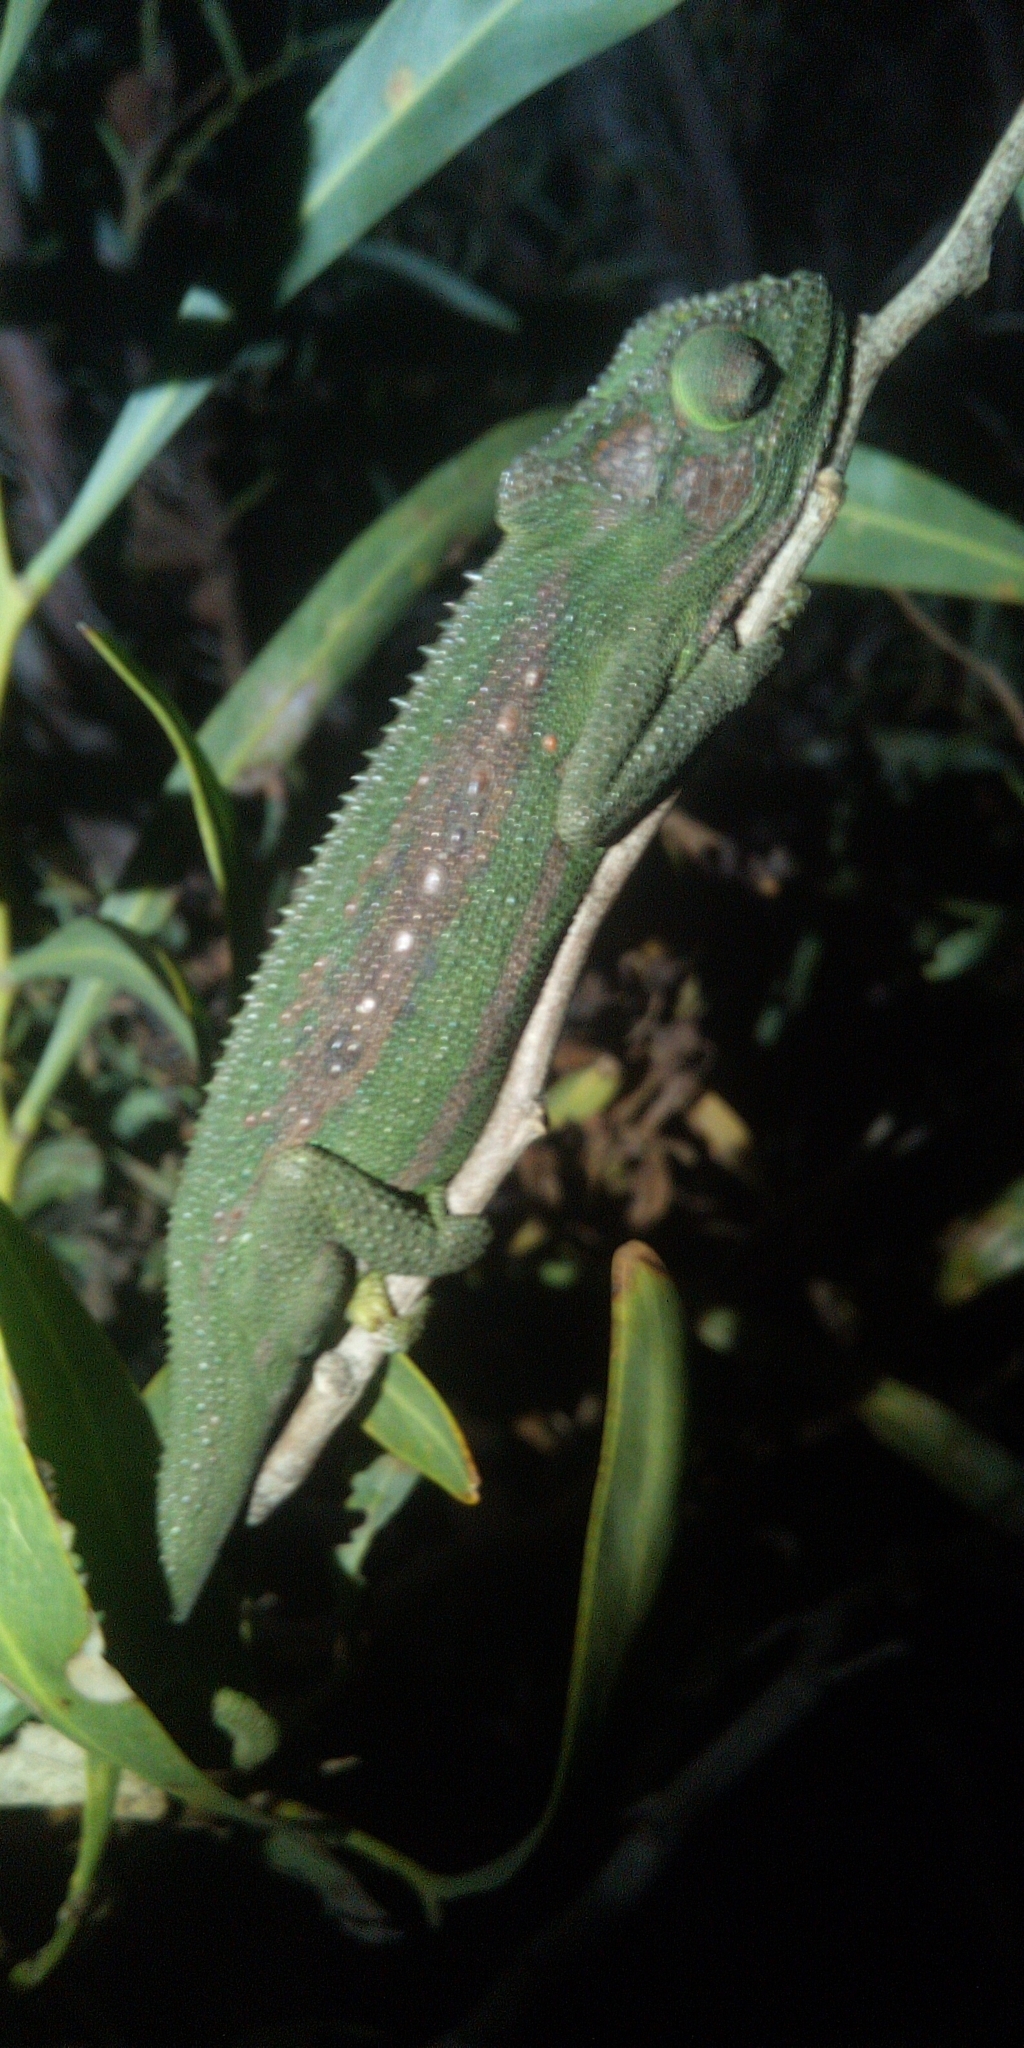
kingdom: Animalia
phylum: Chordata
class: Squamata
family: Chamaeleonidae
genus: Bradypodion
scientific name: Bradypodion pumilum
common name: Cape dwarf chameleon
